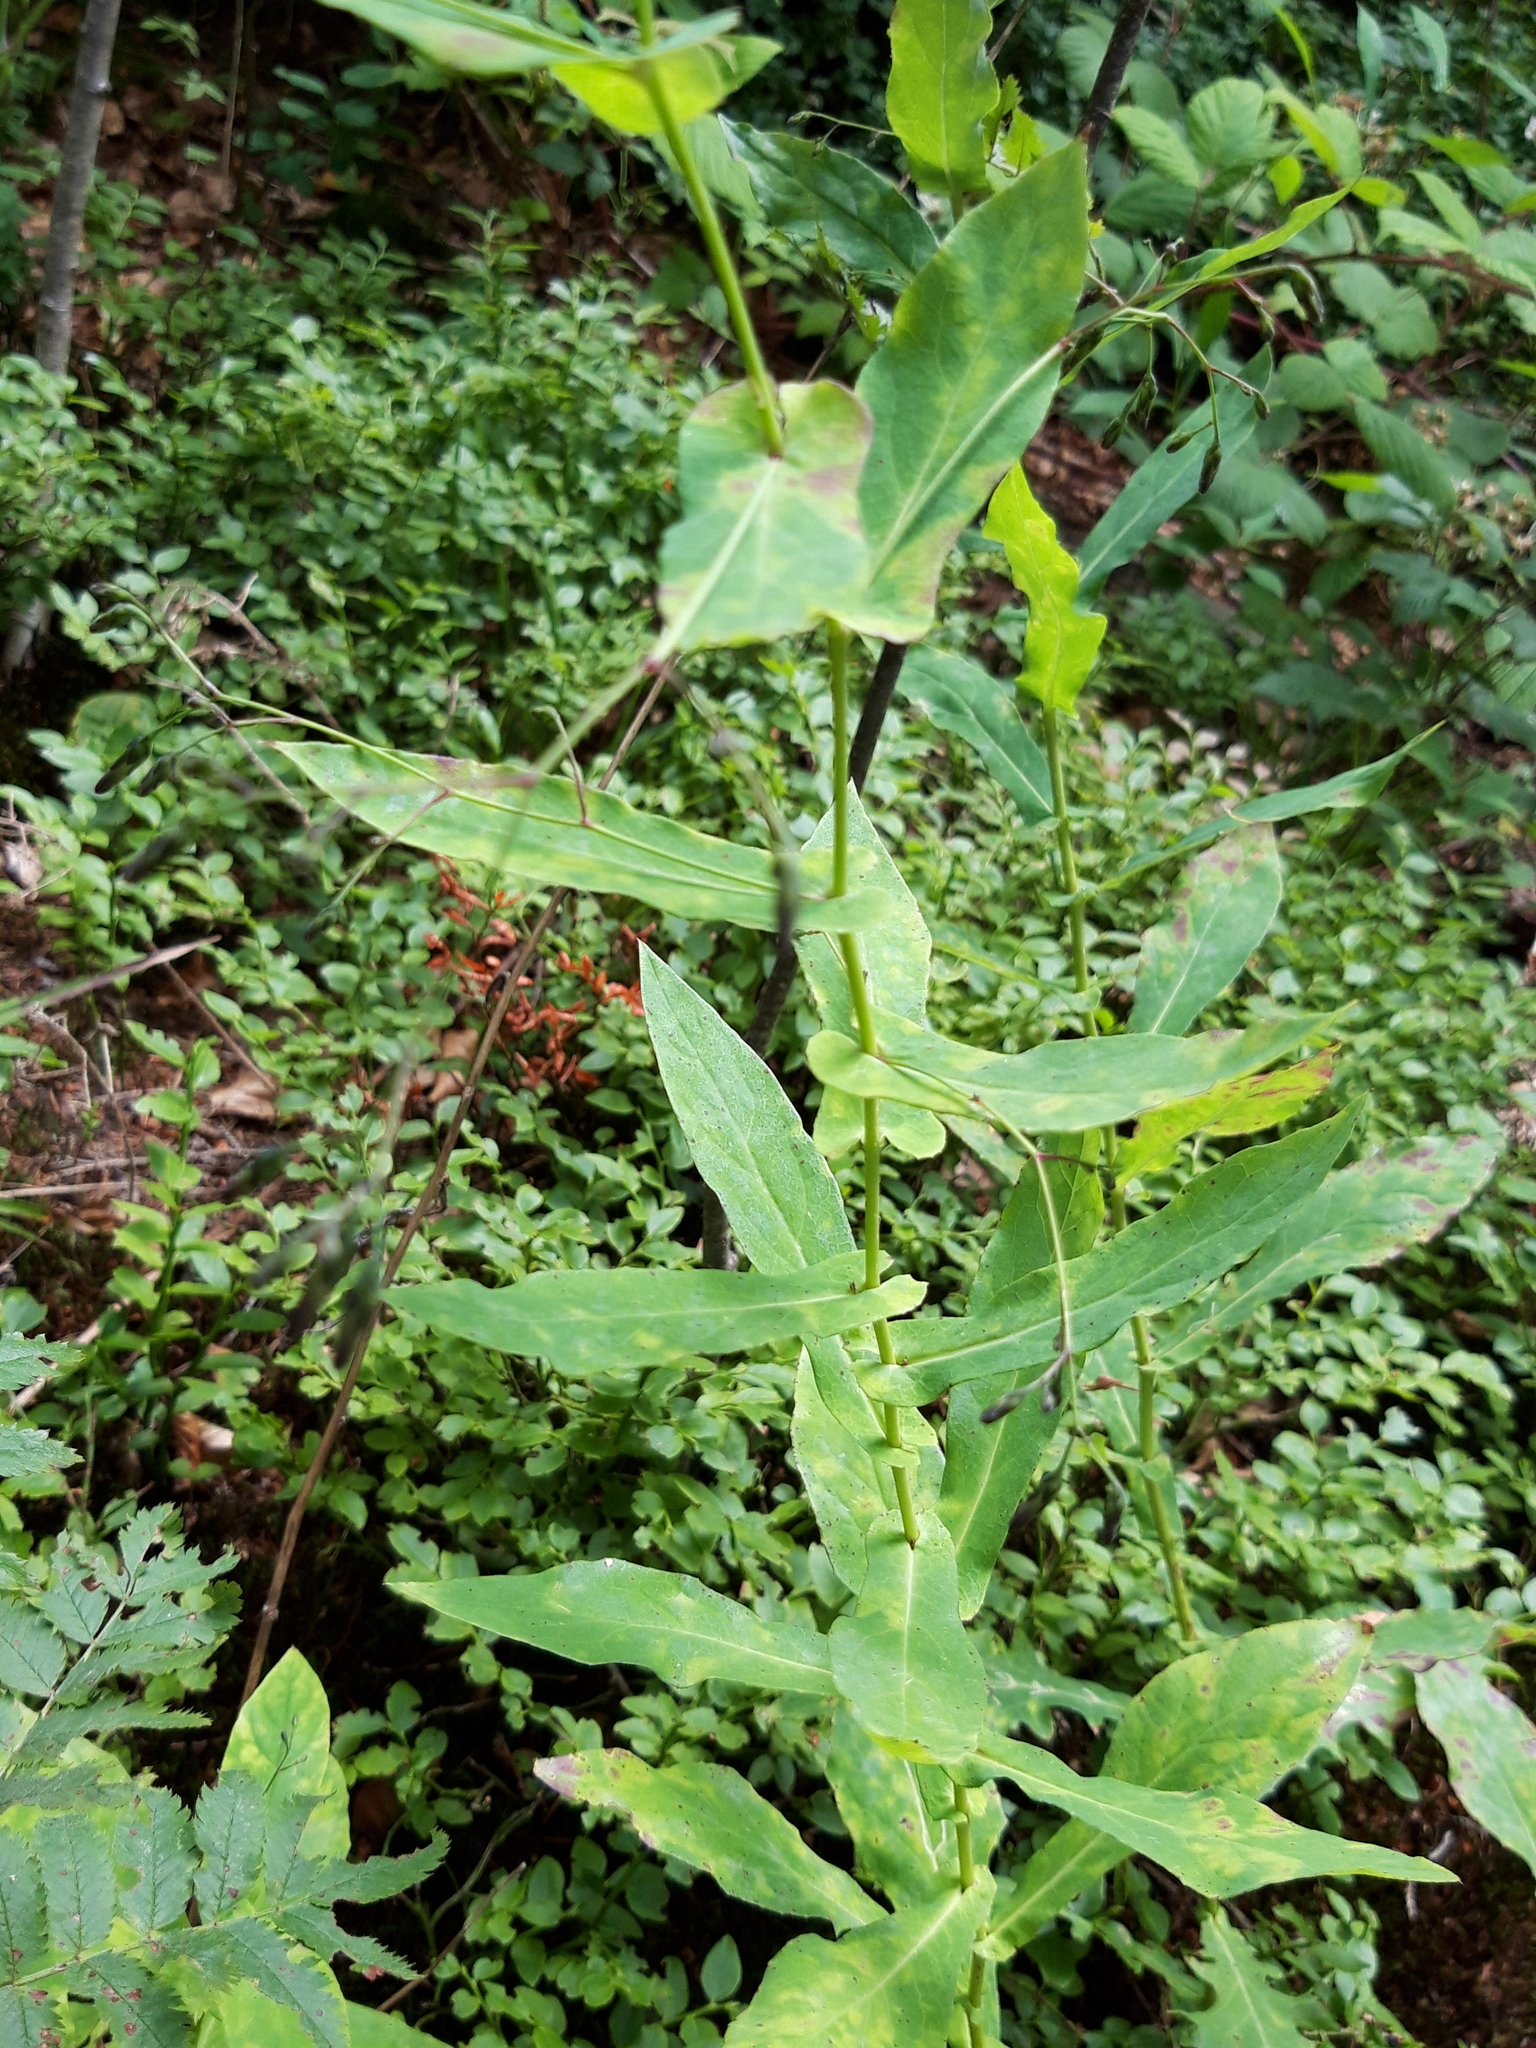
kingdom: Plantae
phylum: Tracheophyta
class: Magnoliopsida
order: Asterales
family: Asteraceae
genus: Prenanthes
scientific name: Prenanthes purpurea
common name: Purple lettuce
